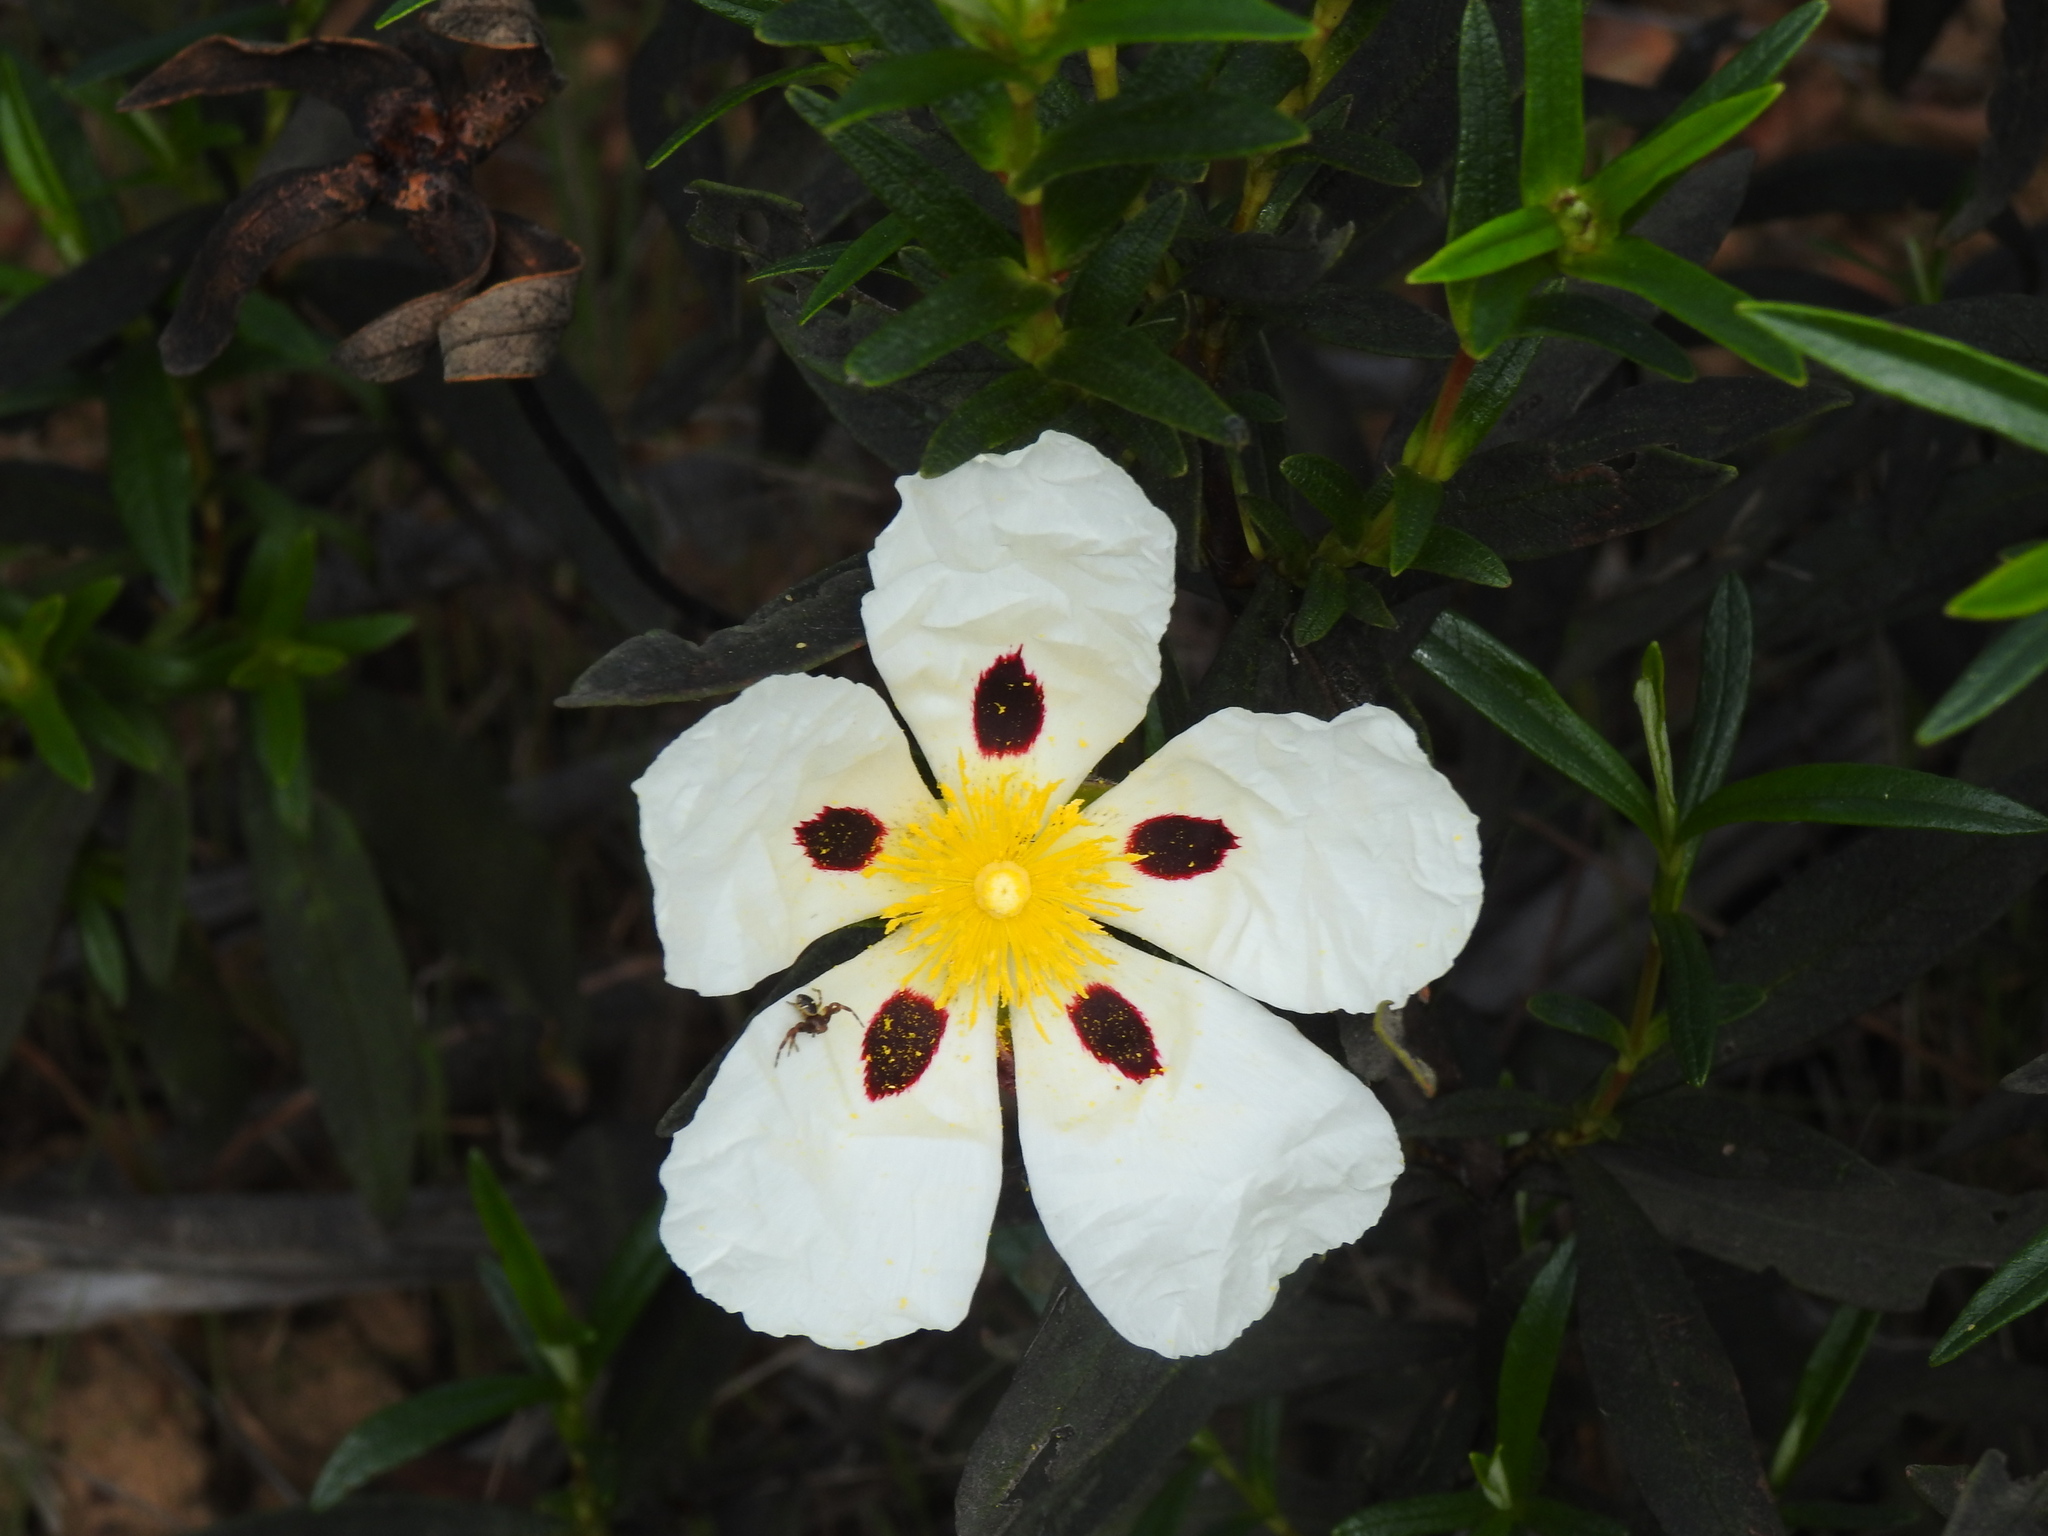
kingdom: Plantae
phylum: Tracheophyta
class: Magnoliopsida
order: Malvales
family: Cistaceae
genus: Cistus
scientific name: Cistus ladanifer
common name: Common gum cistus
